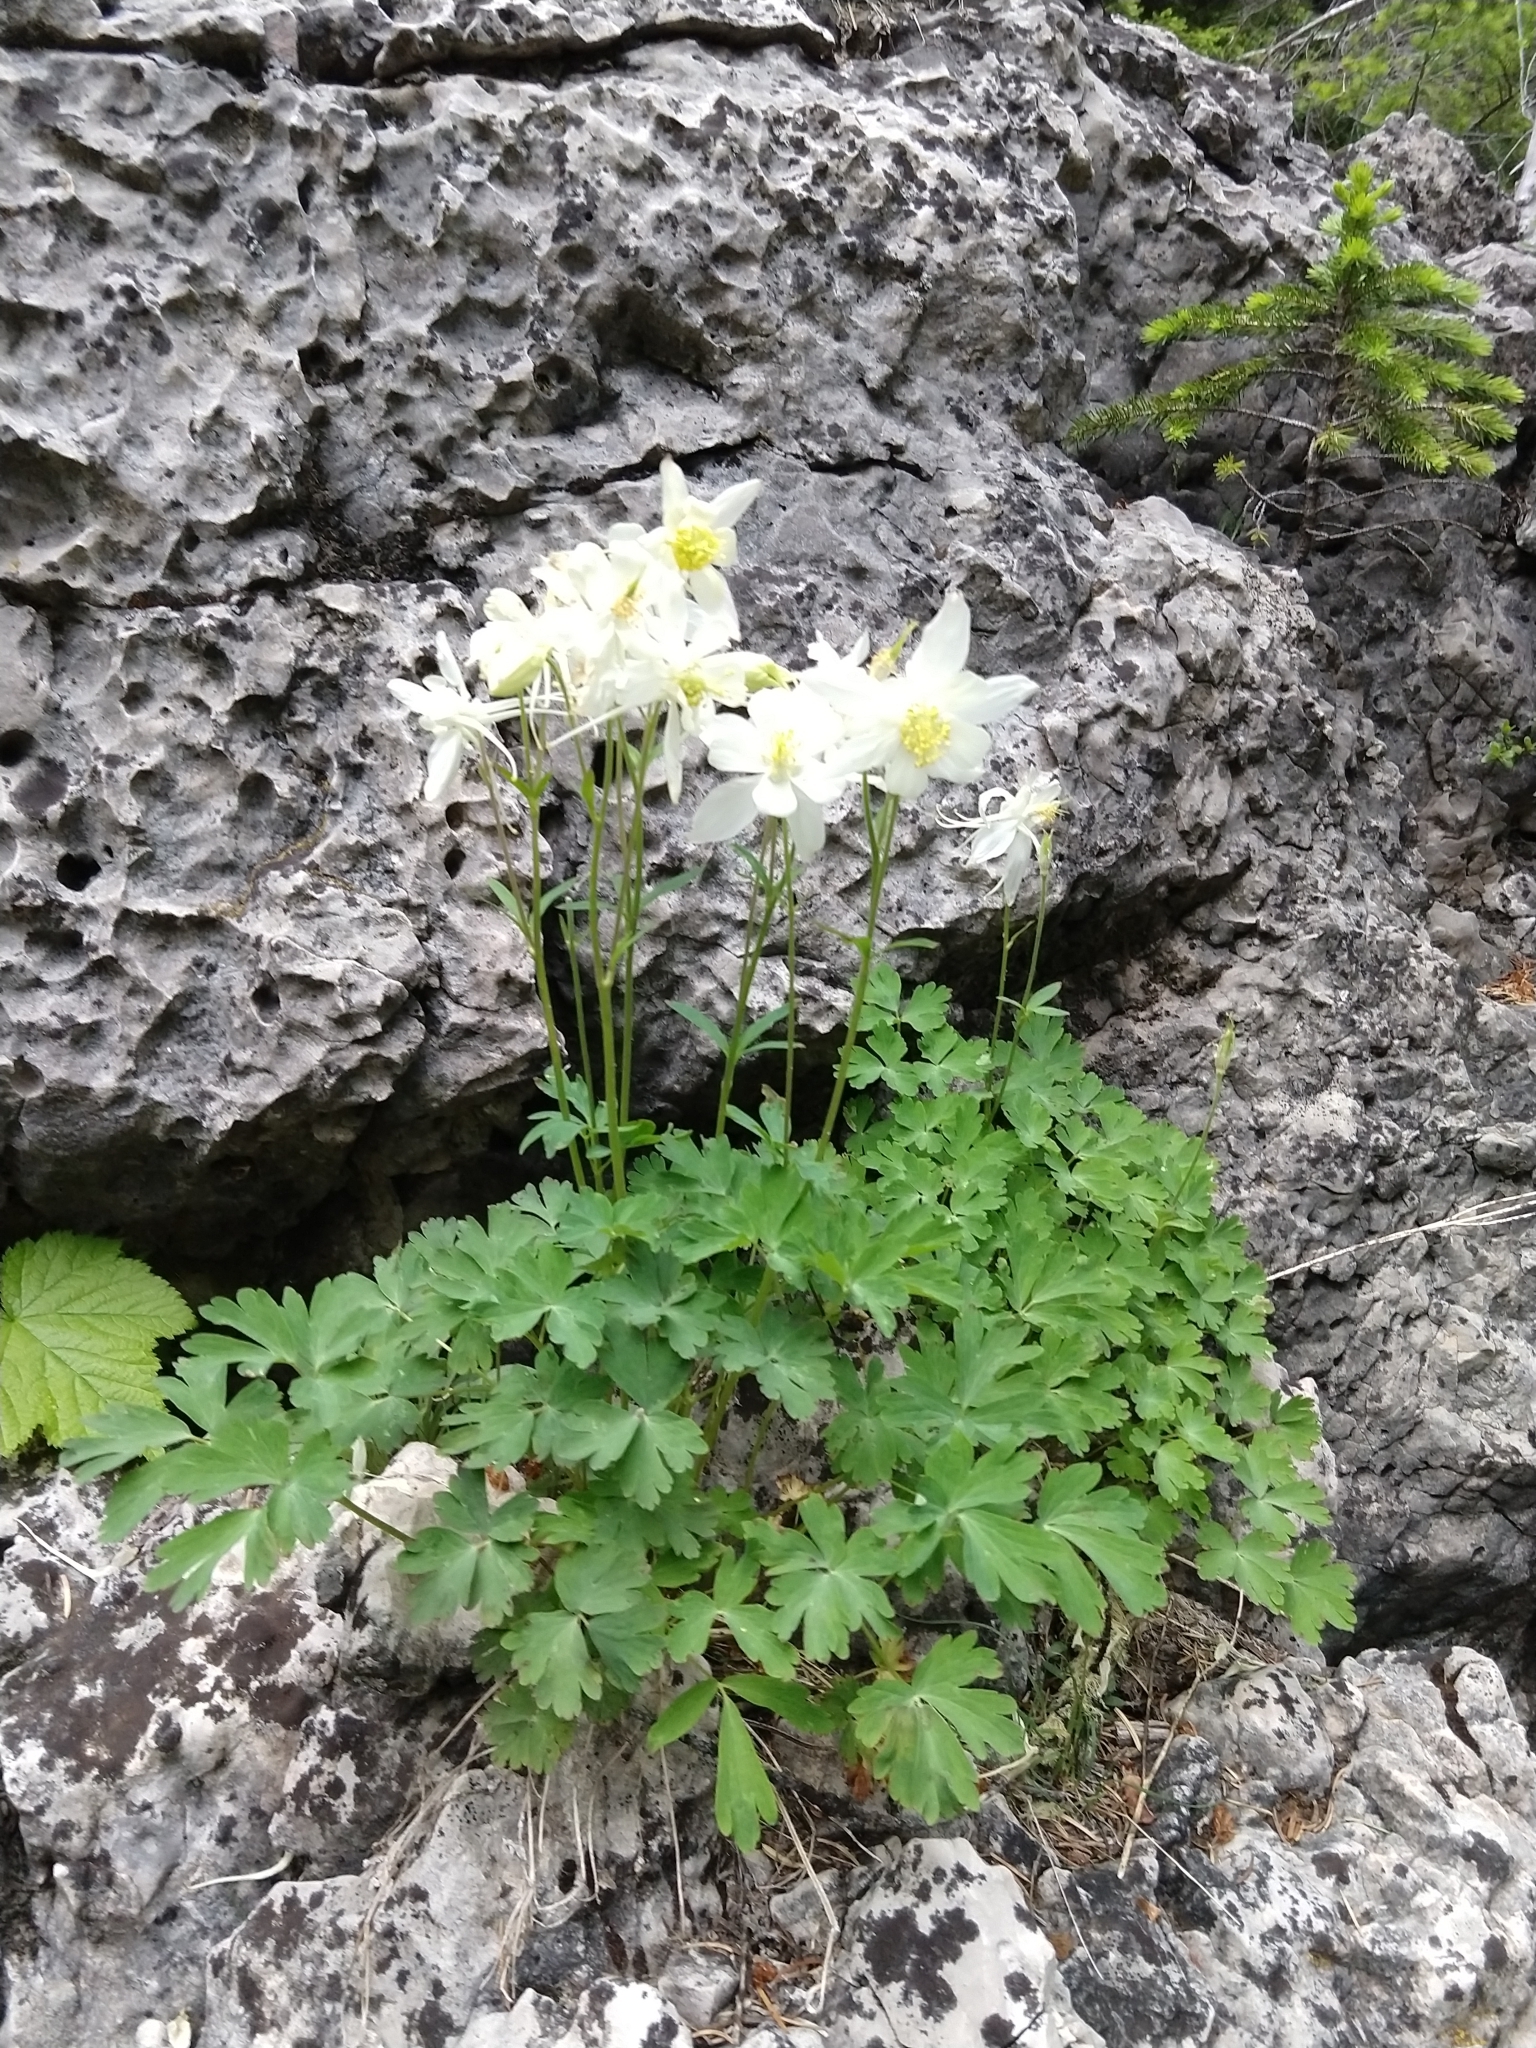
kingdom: Plantae
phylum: Tracheophyta
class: Magnoliopsida
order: Ranunculales
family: Ranunculaceae
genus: Aquilegia
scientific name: Aquilegia coerulea
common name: Rocky mountain columbine
